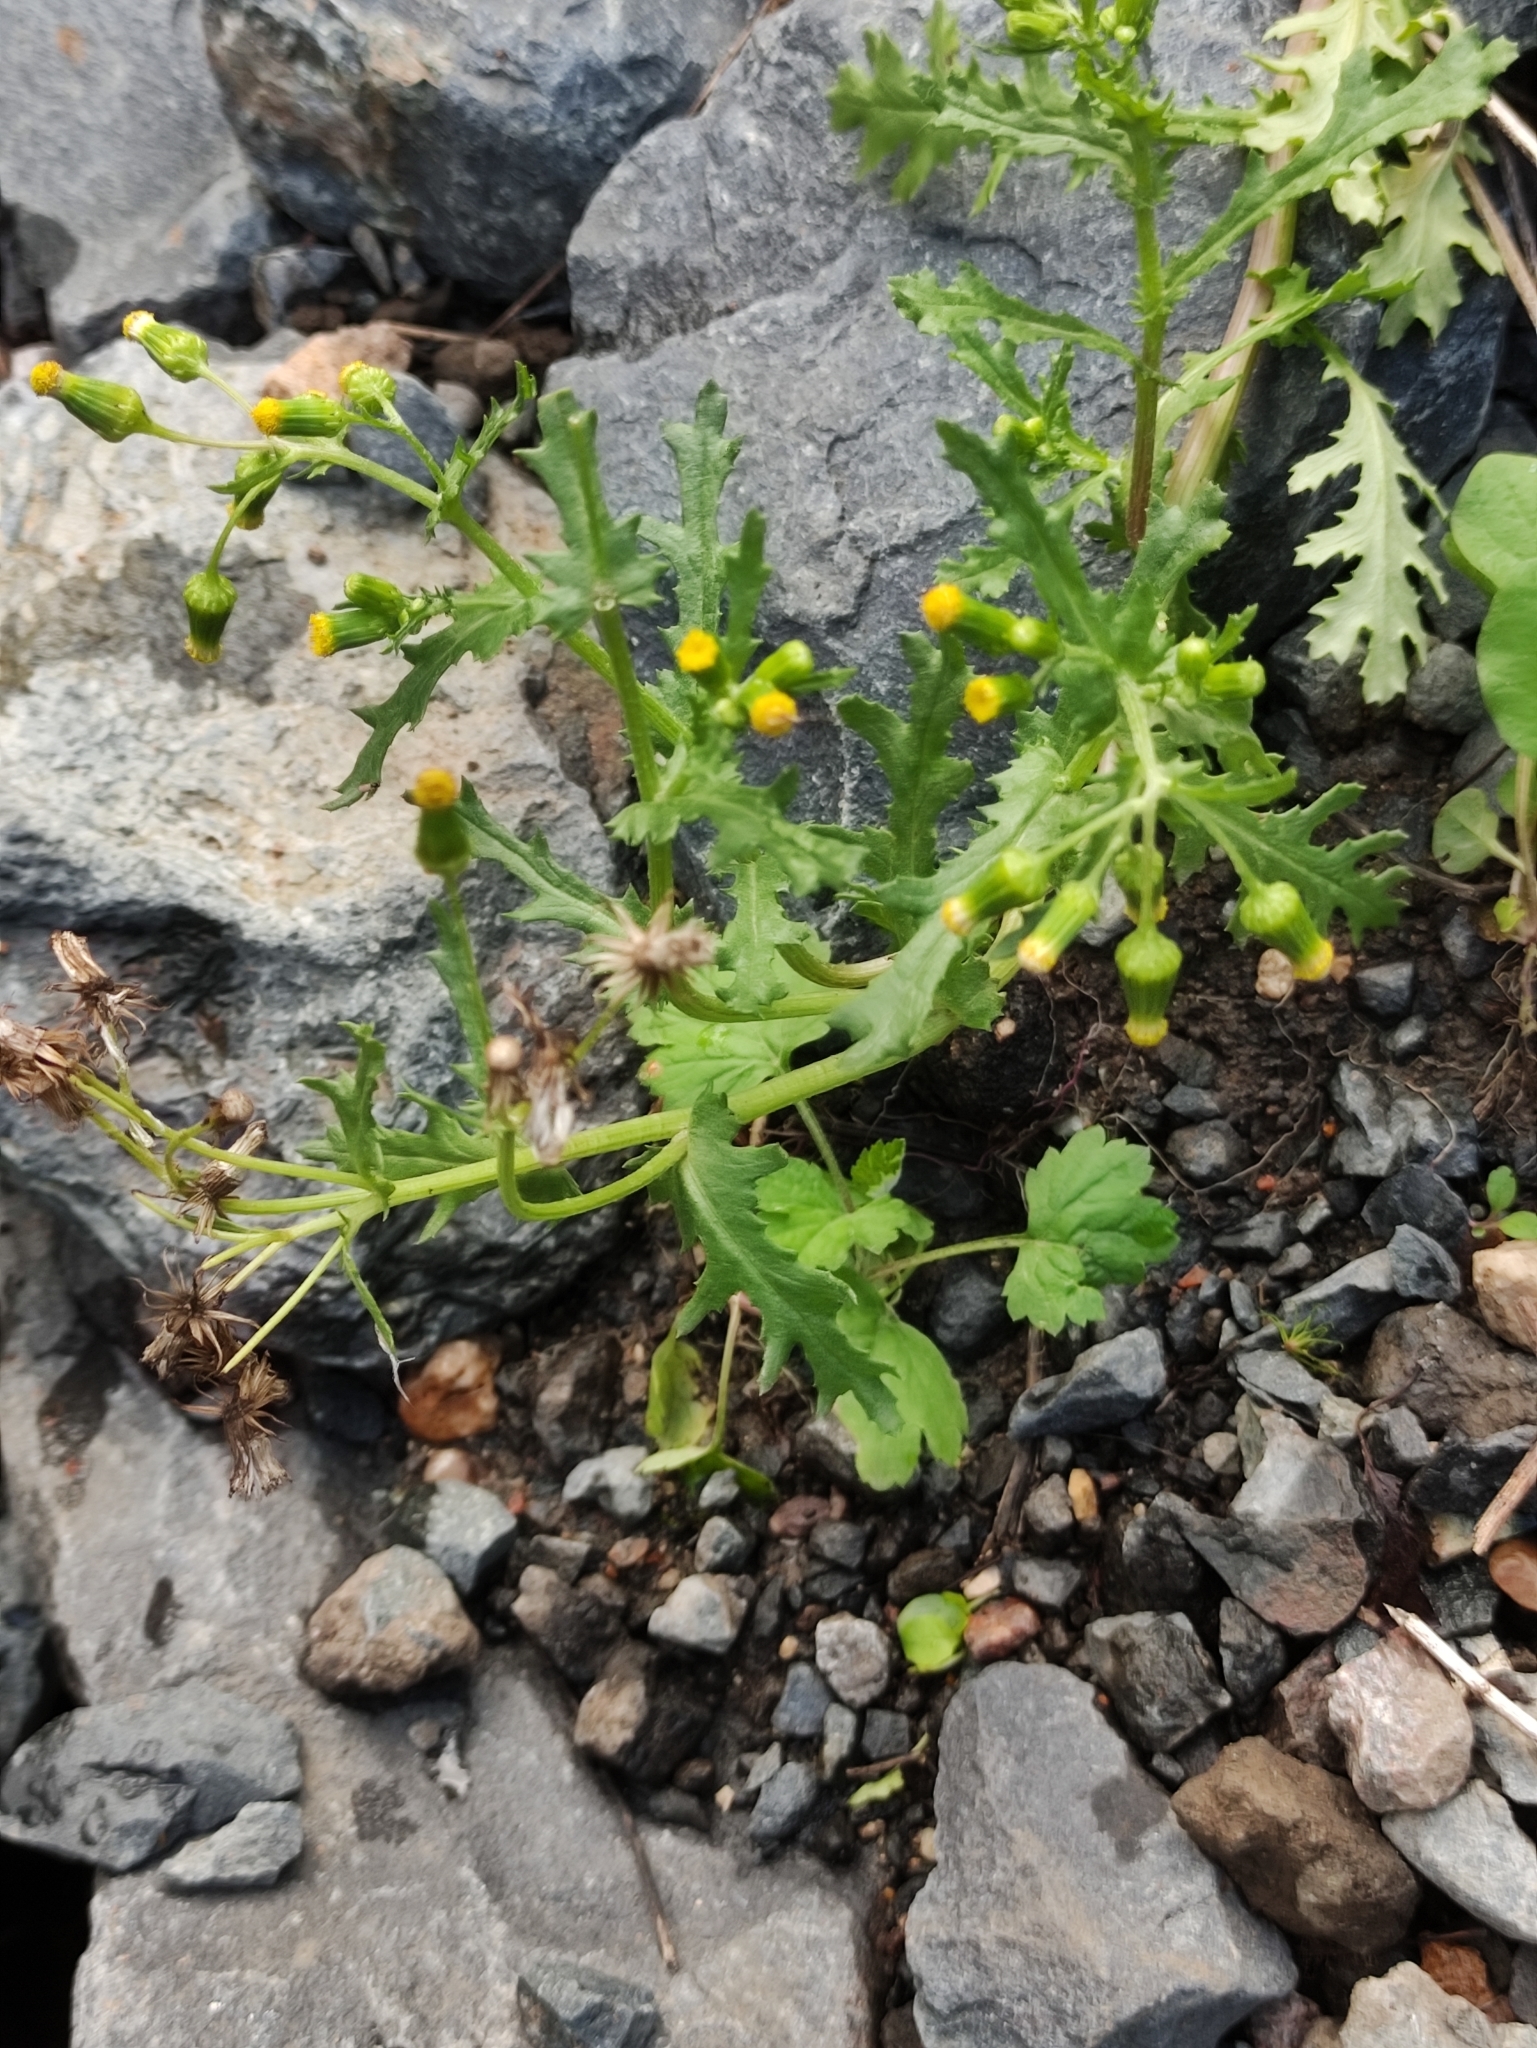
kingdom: Plantae
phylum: Tracheophyta
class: Magnoliopsida
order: Asterales
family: Asteraceae
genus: Senecio
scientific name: Senecio vulgaris
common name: Old-man-in-the-spring
